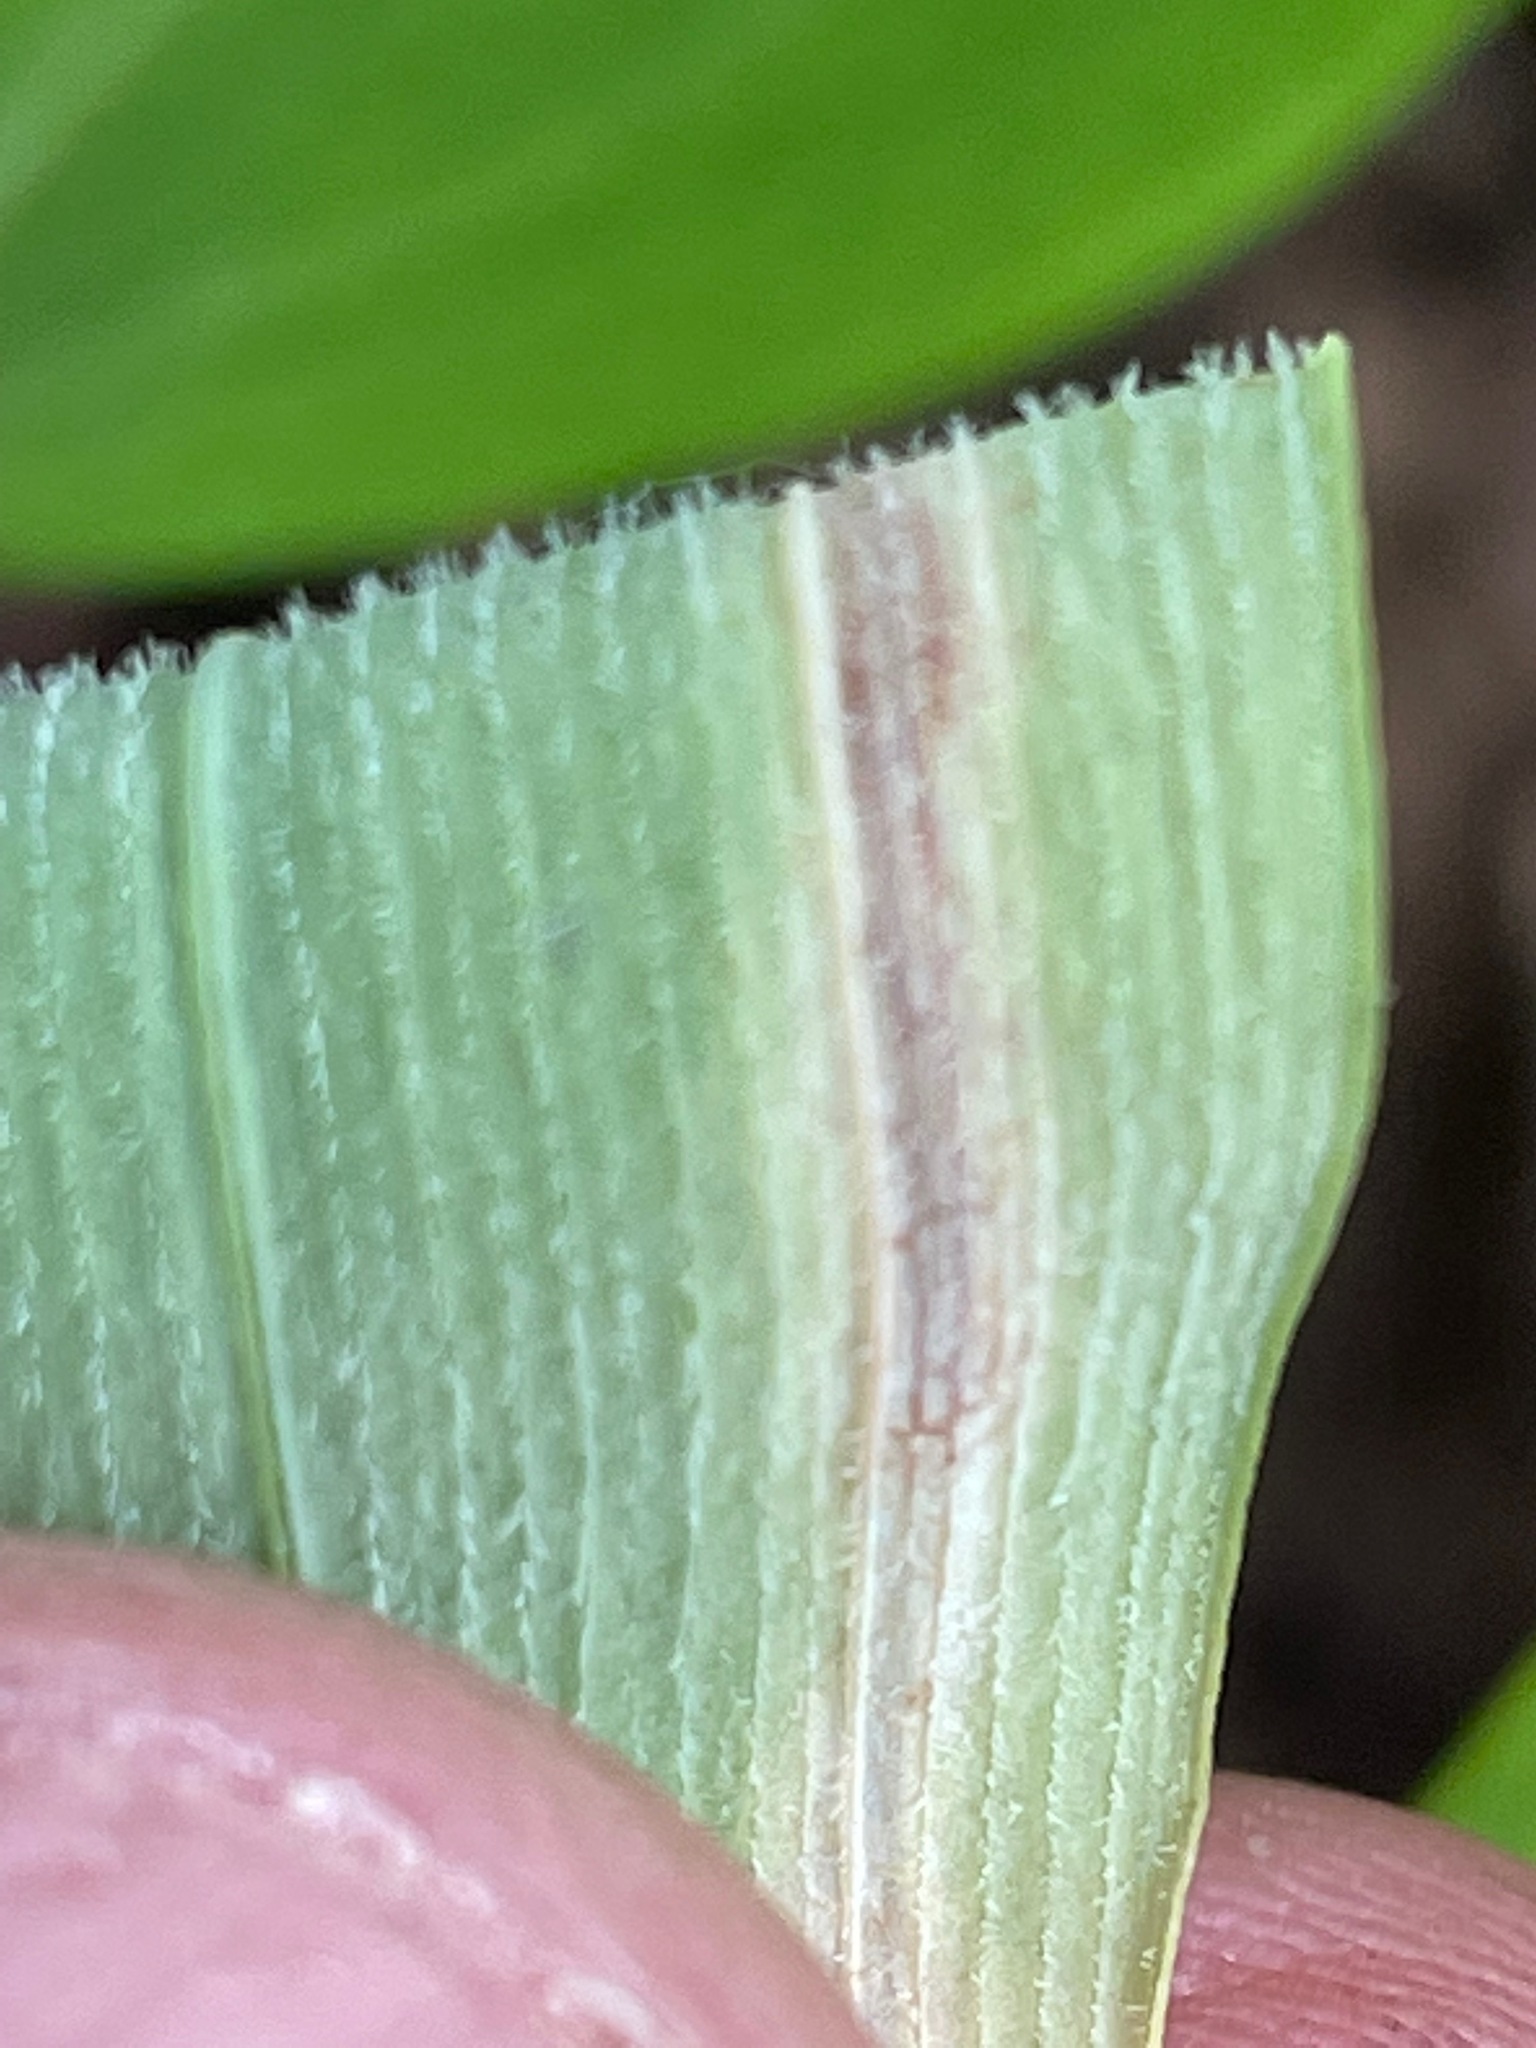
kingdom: Plantae
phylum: Tracheophyta
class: Liliopsida
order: Asparagales
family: Asparagaceae
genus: Polygonatum
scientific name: Polygonatum pubescens
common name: Downy solomon's seal
